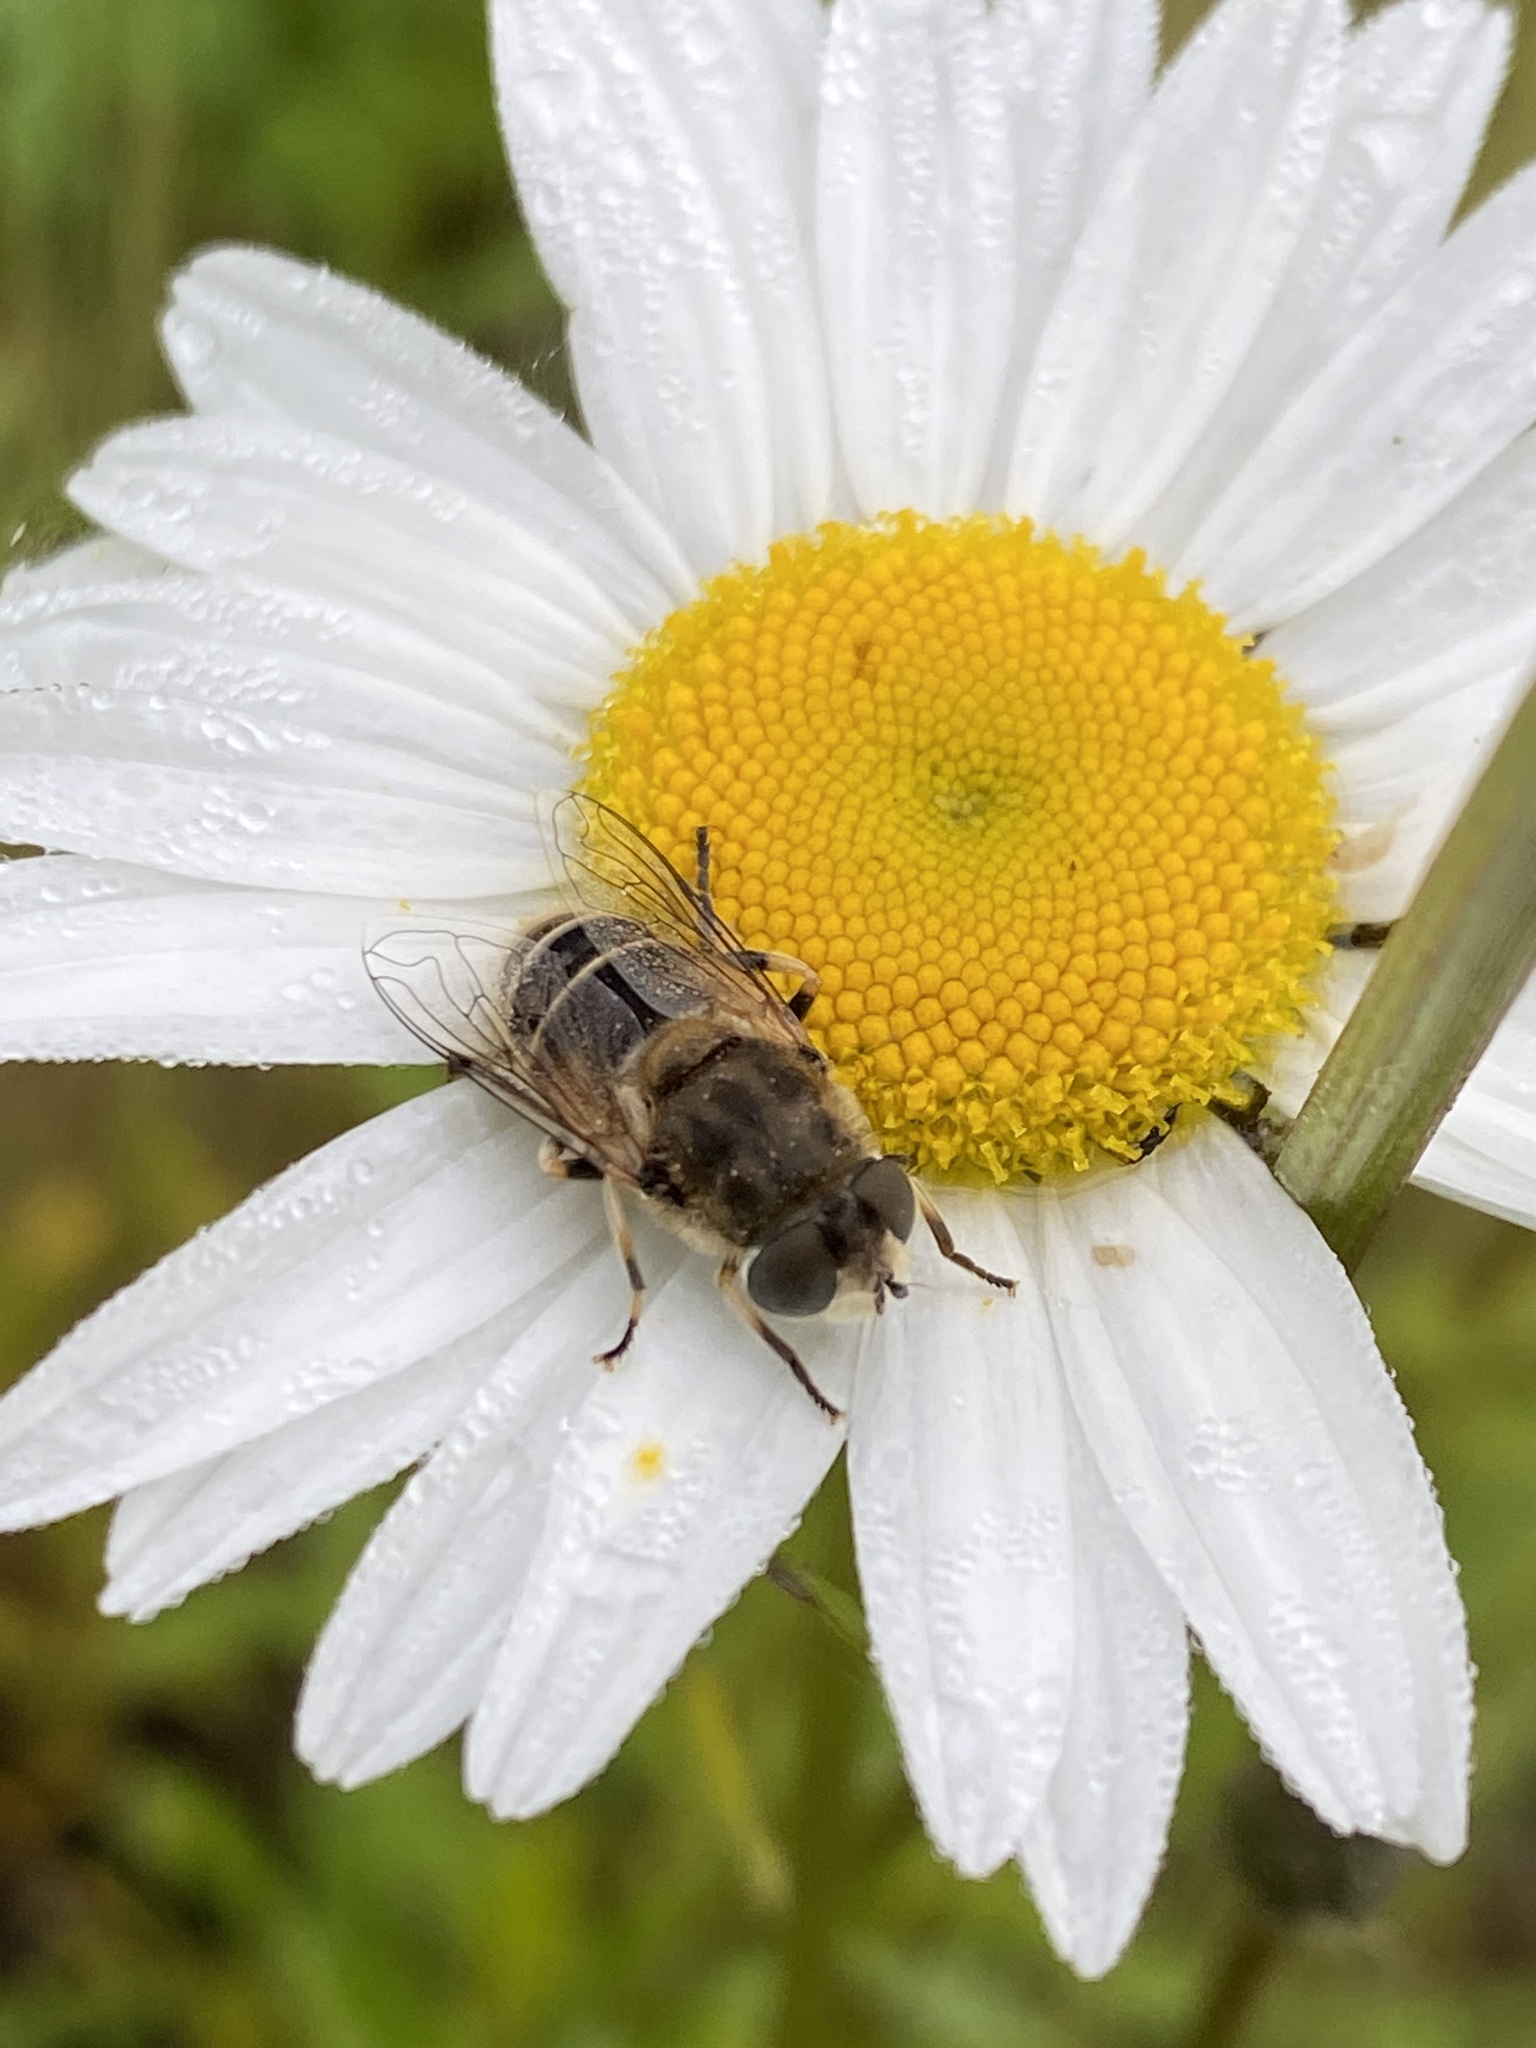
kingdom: Animalia
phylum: Arthropoda
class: Insecta
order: Diptera
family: Syrphidae
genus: Eristalis
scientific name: Eristalis arbustorum
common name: Hover fly
